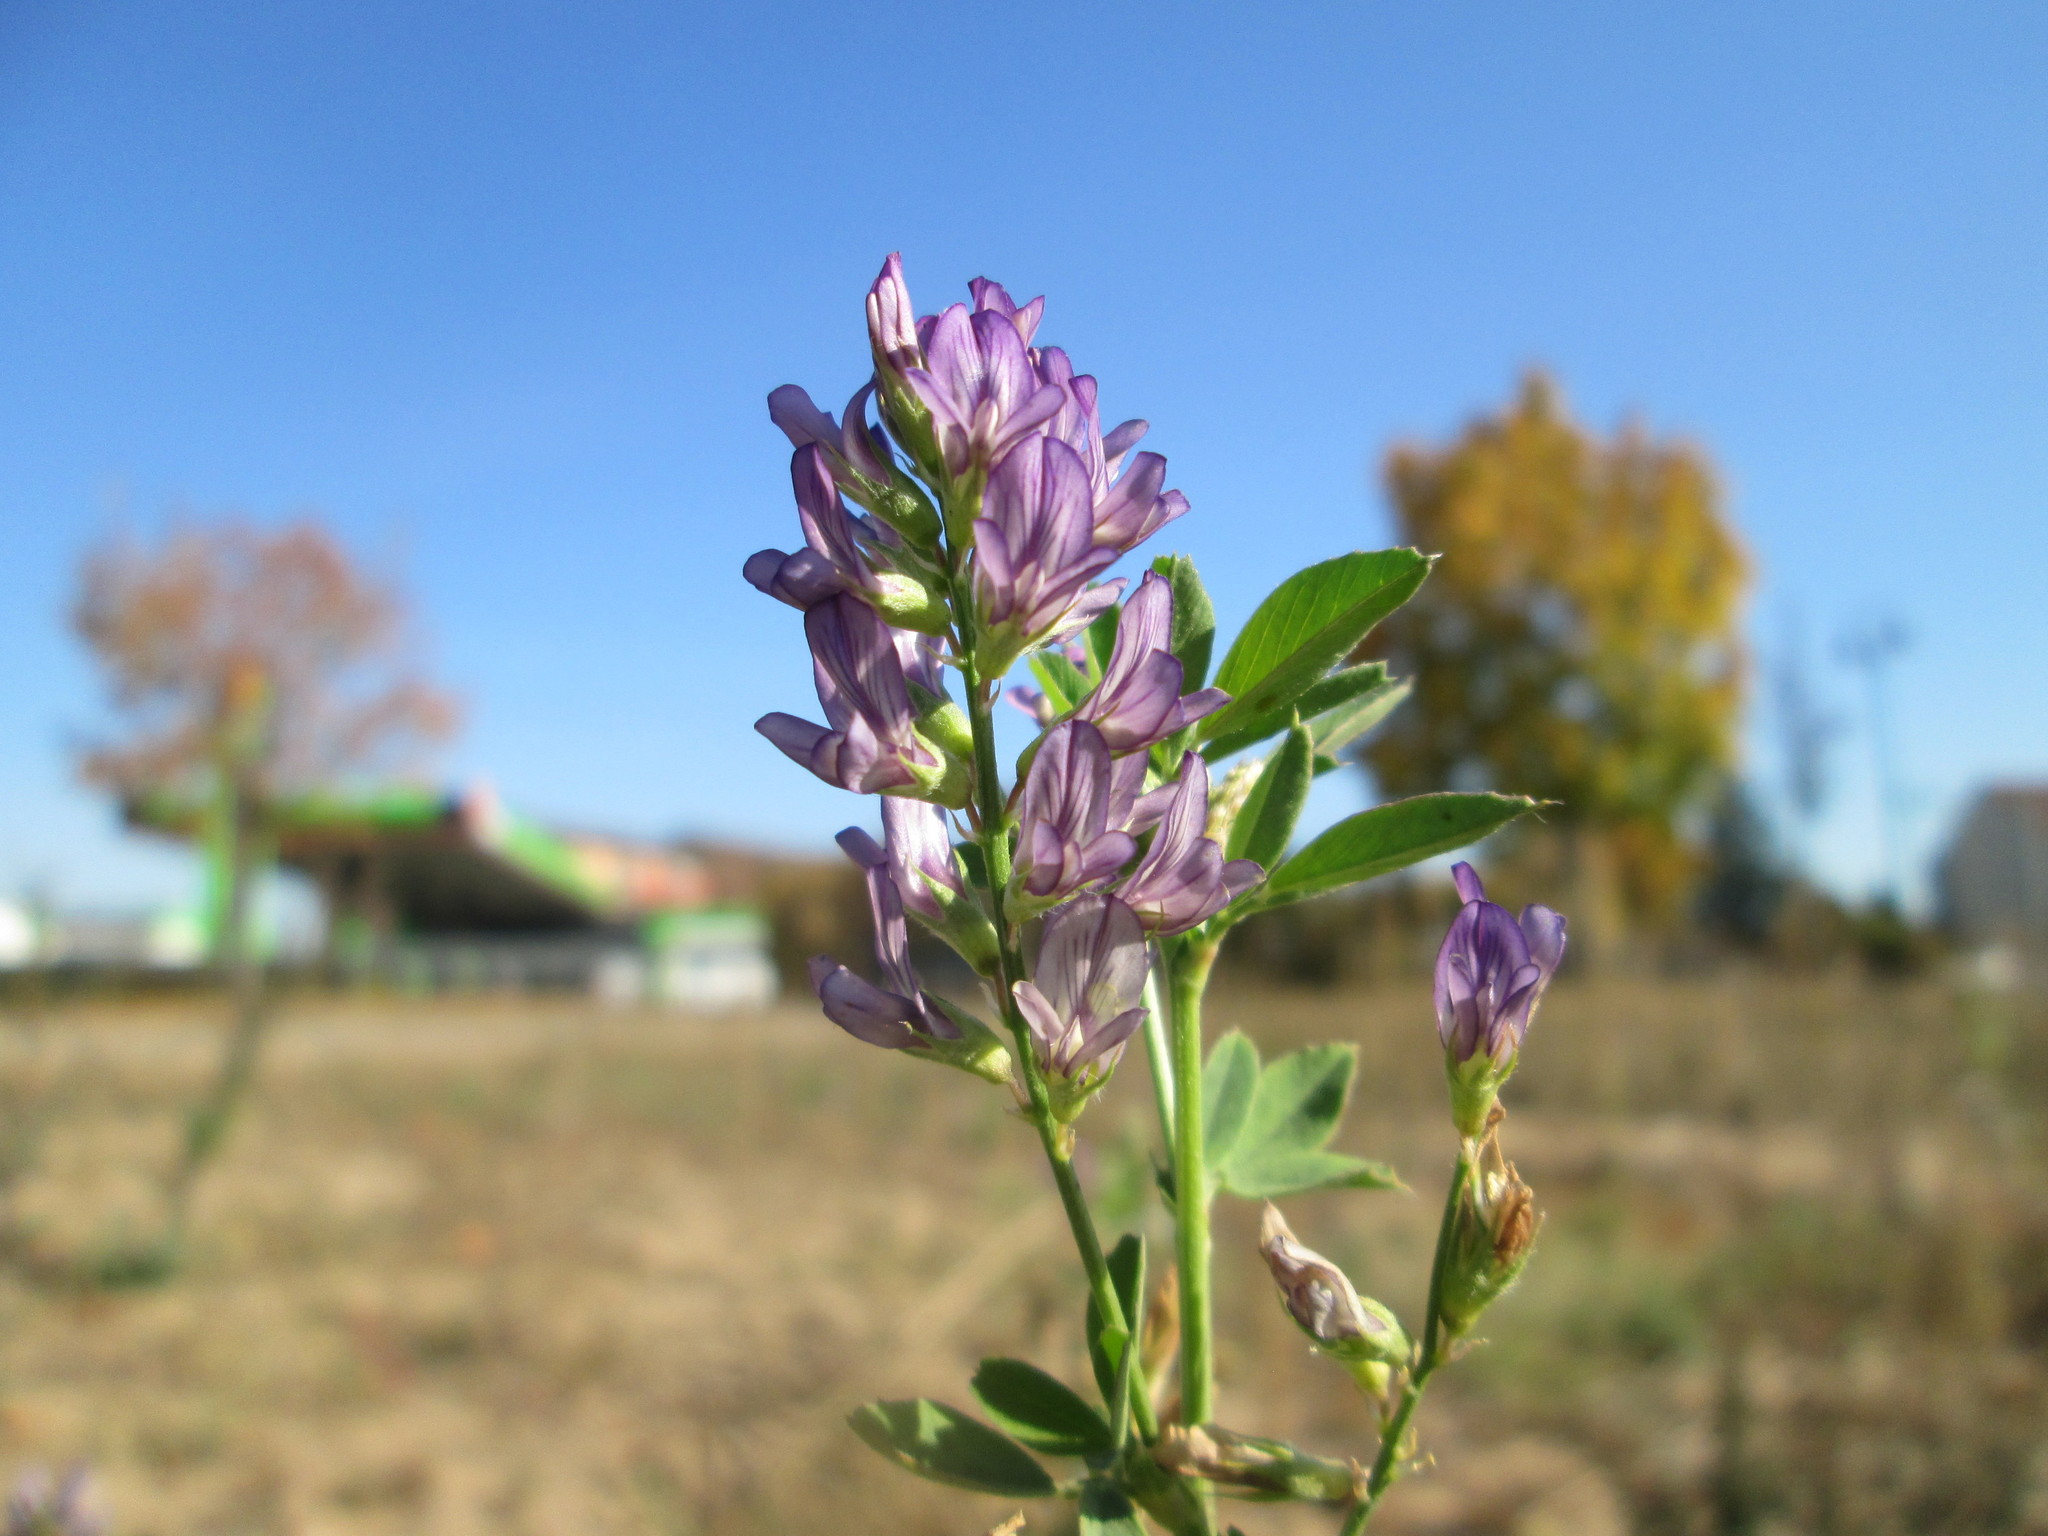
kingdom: Plantae
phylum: Tracheophyta
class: Magnoliopsida
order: Fabales
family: Fabaceae
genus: Medicago
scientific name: Medicago sativa
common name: Alfalfa
